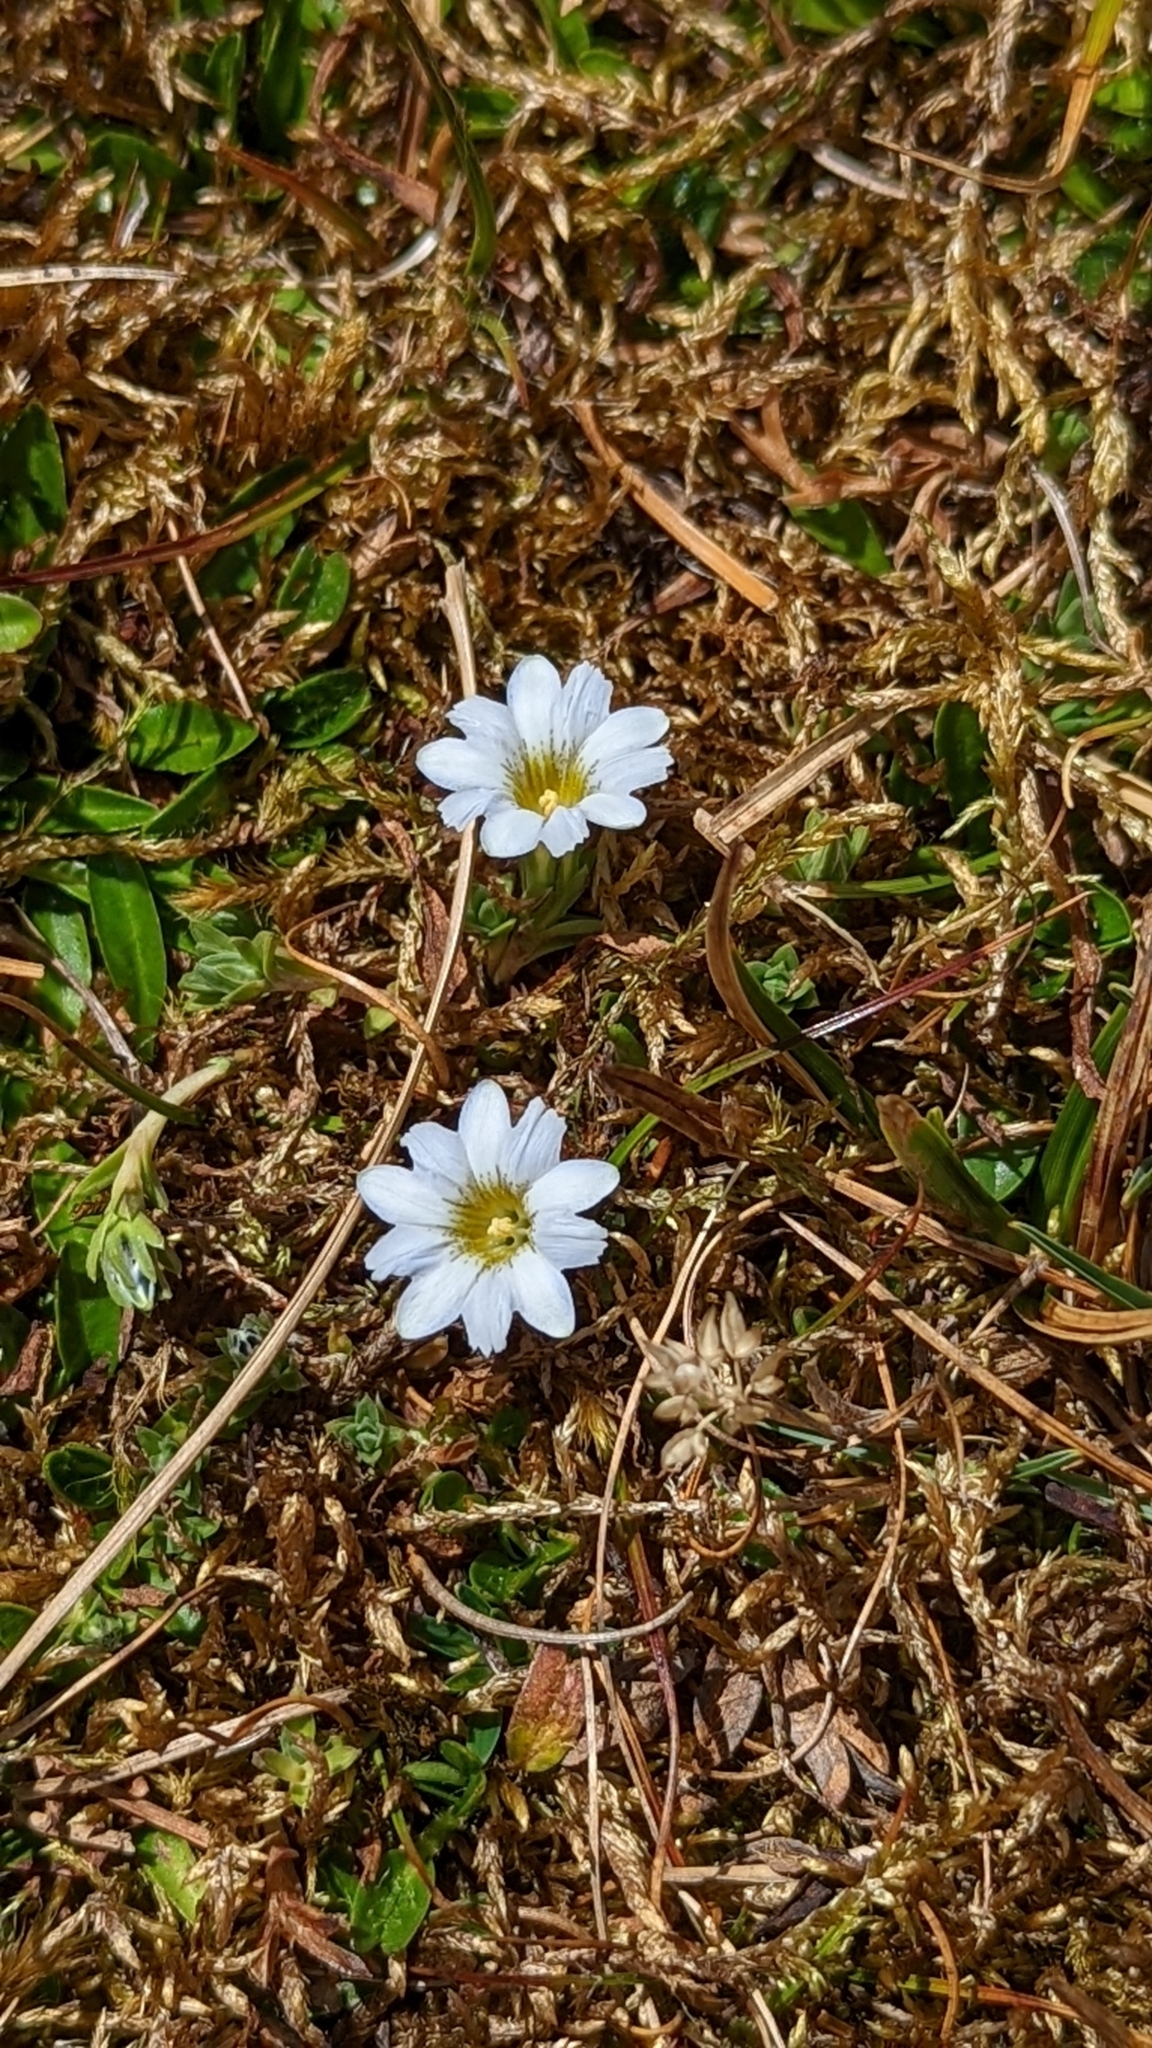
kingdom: Plantae
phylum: Tracheophyta
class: Magnoliopsida
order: Gentianales
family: Gentianaceae
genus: Gentiana
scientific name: Gentiana sedifolia
